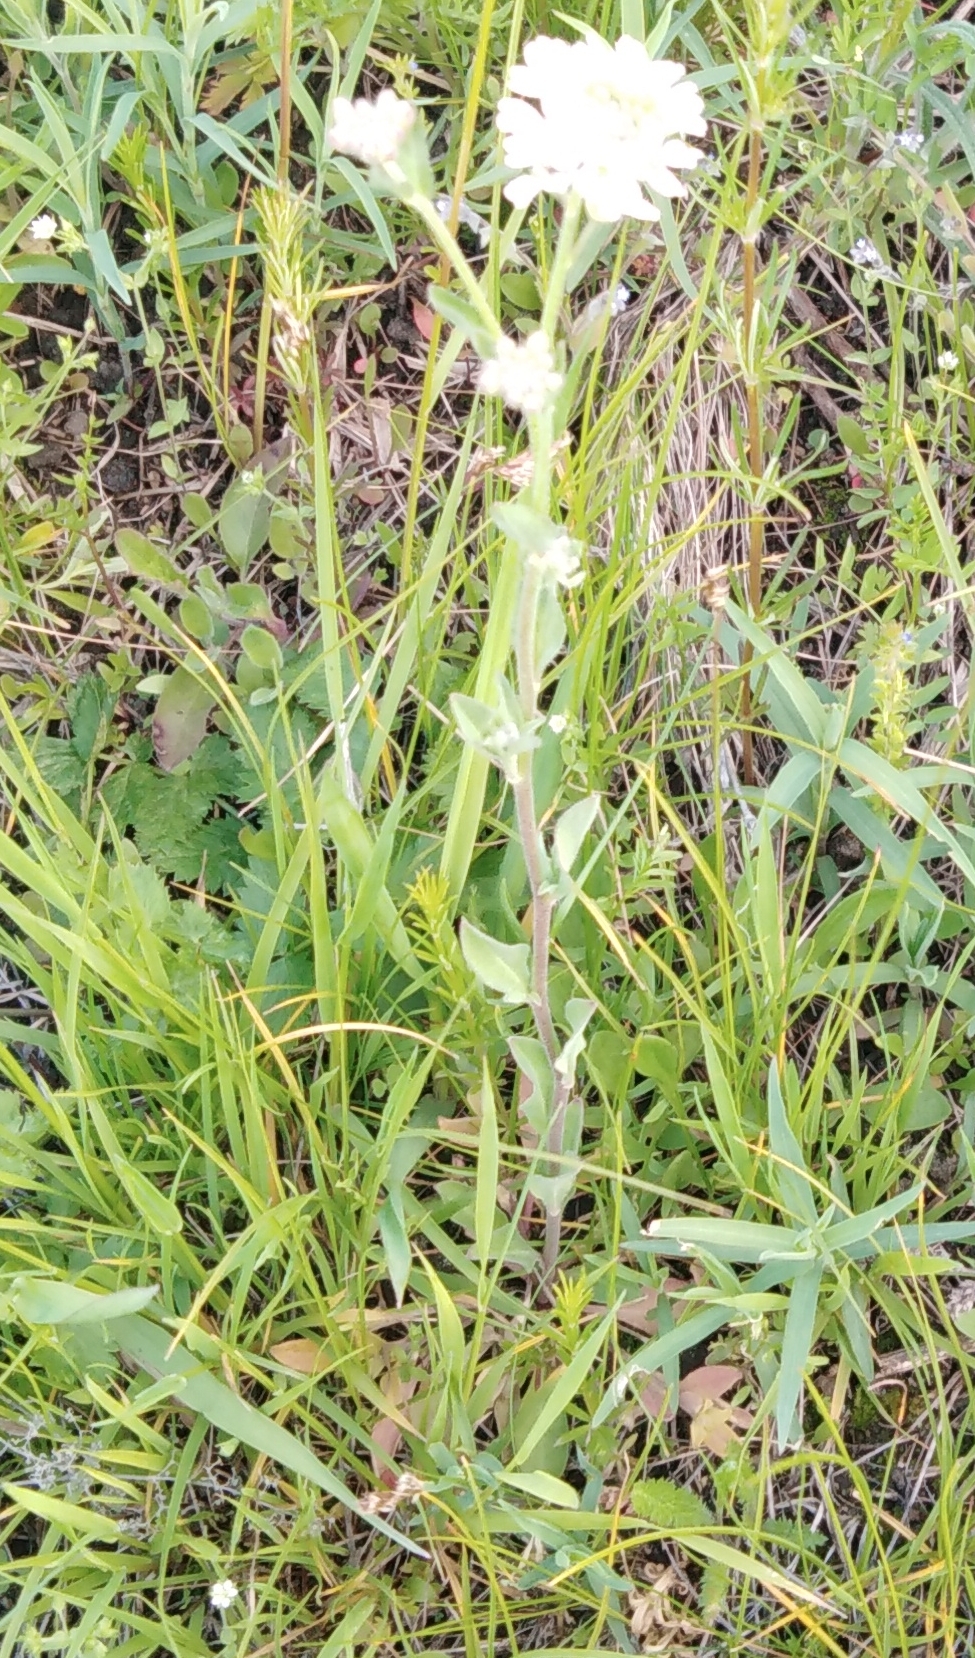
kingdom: Plantae
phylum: Tracheophyta
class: Magnoliopsida
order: Brassicales
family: Brassicaceae
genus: Berteroa
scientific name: Berteroa incana
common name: Hoary alison
